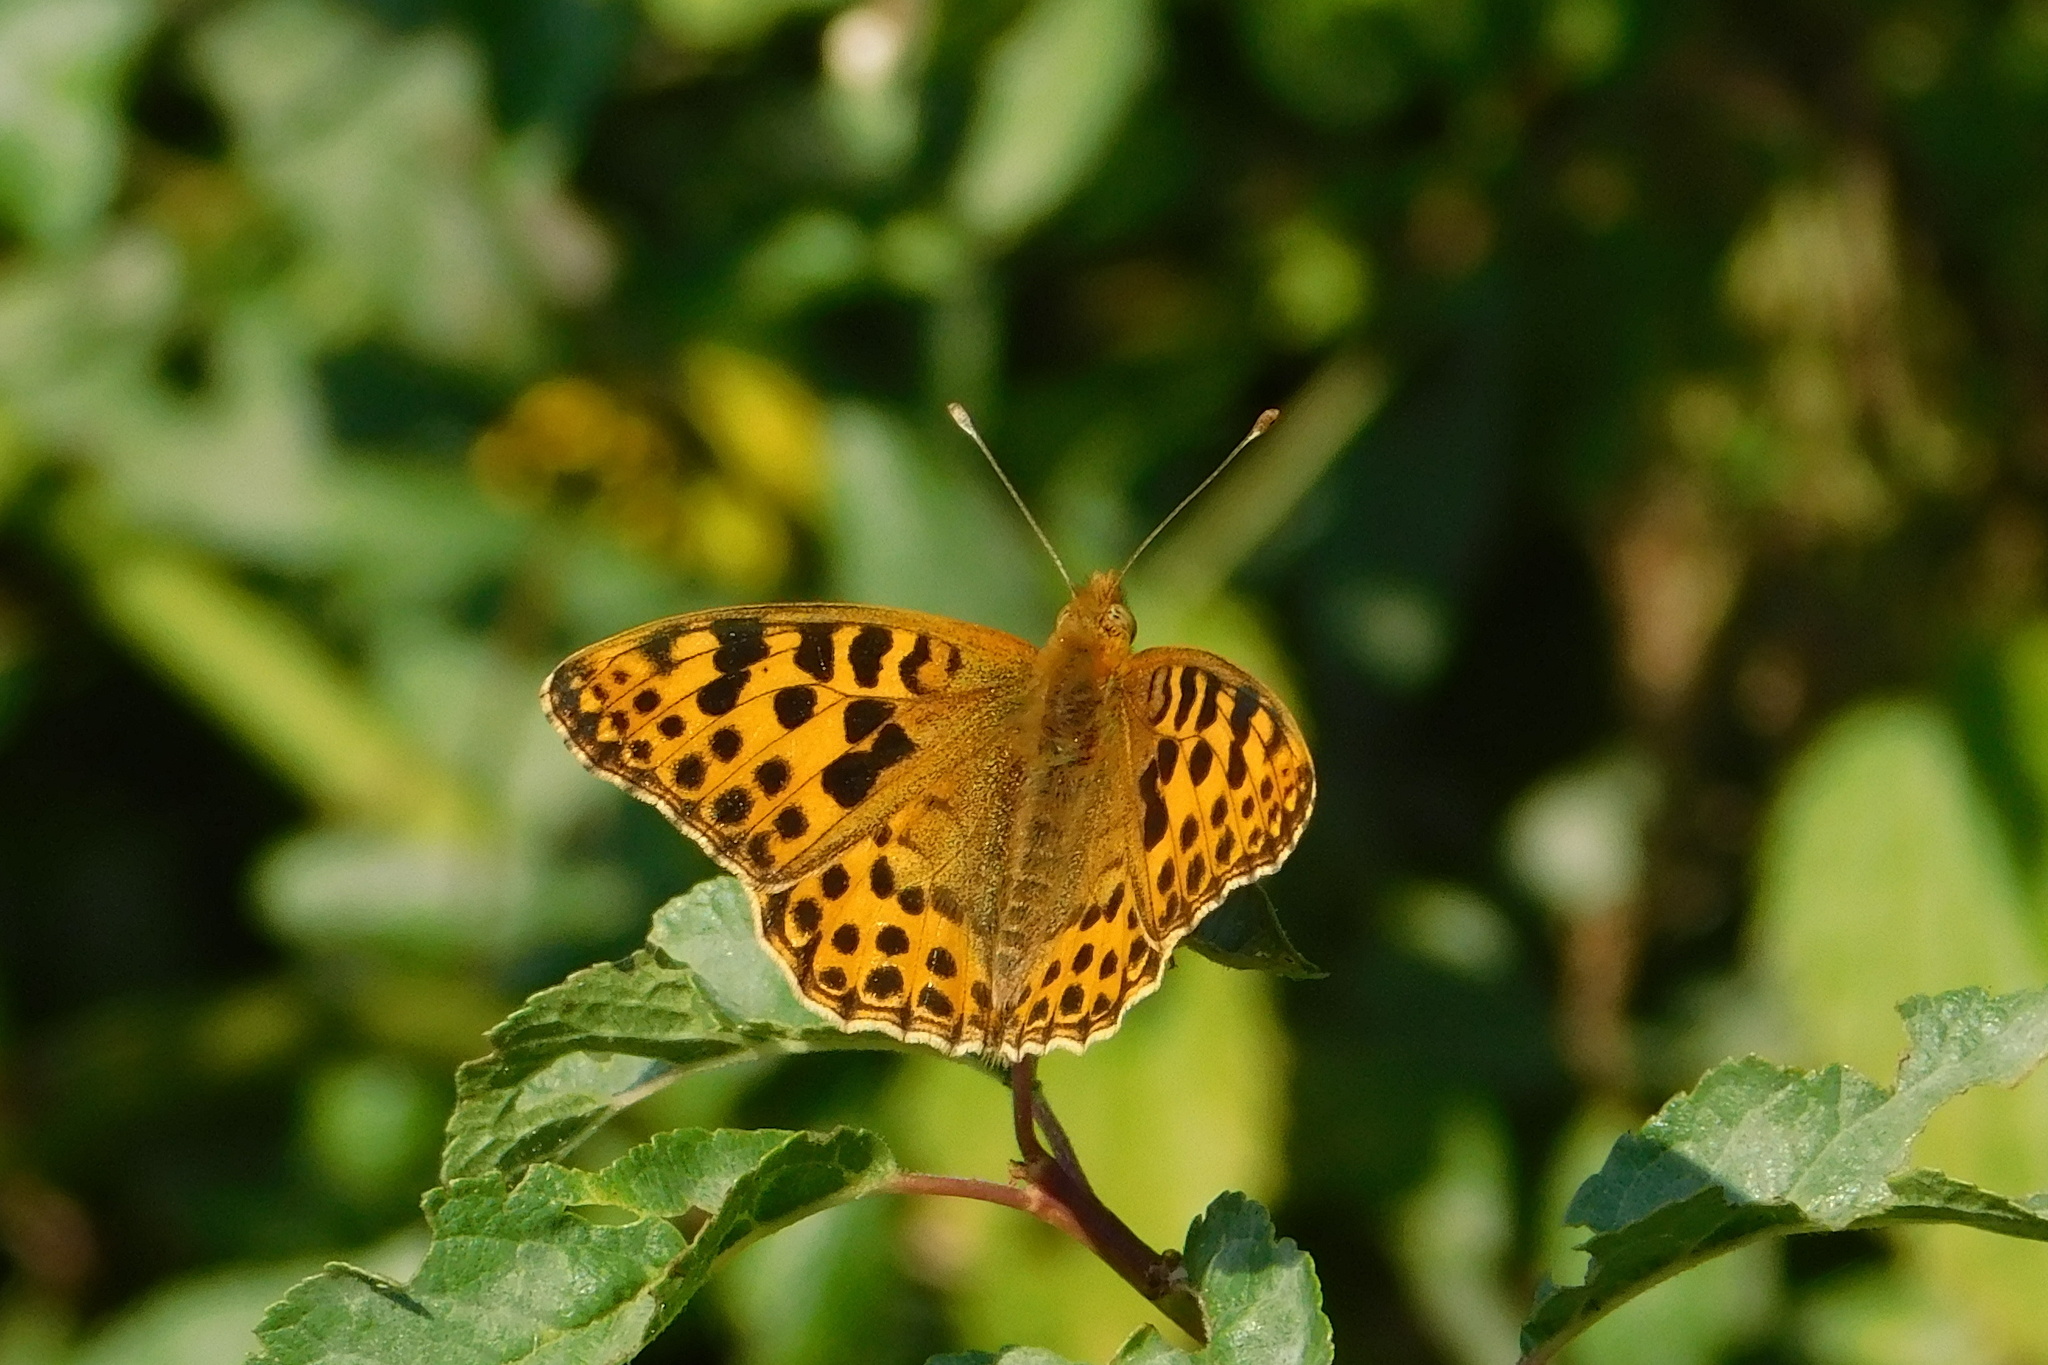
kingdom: Animalia
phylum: Arthropoda
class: Insecta
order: Lepidoptera
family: Nymphalidae
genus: Issoria
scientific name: Issoria lathonia
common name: Queen of spain fritillary
